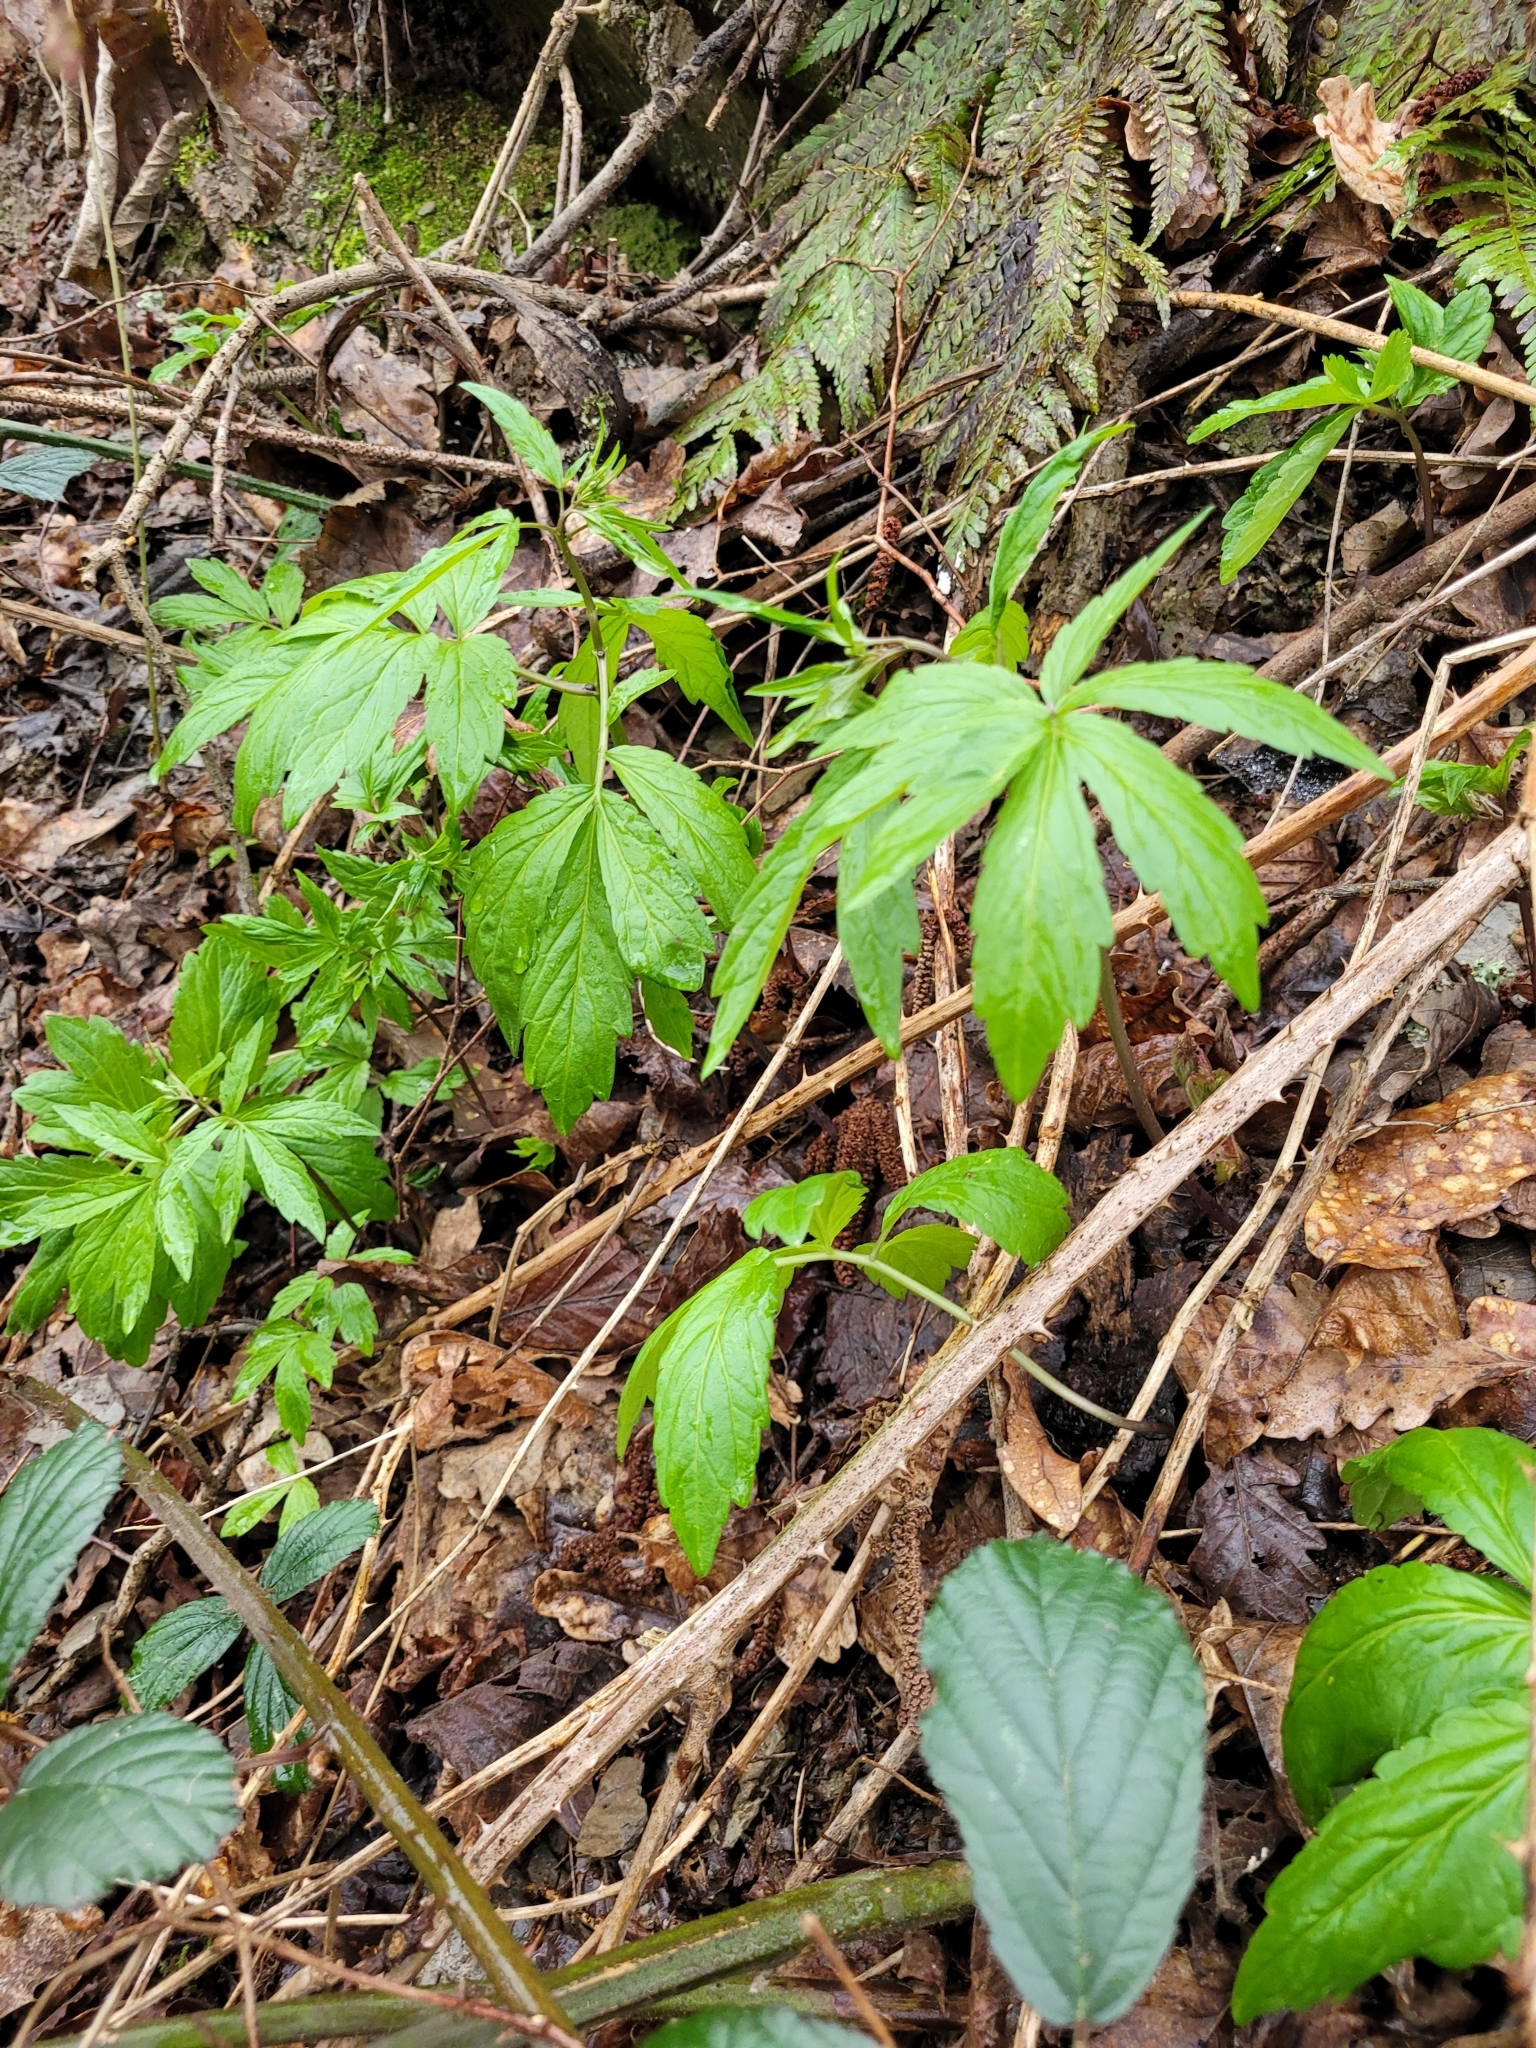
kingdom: Plantae
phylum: Tracheophyta
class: Magnoliopsida
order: Brassicales
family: Brassicaceae
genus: Cardamine
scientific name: Cardamine bulbifera
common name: Coralroot bittercress
